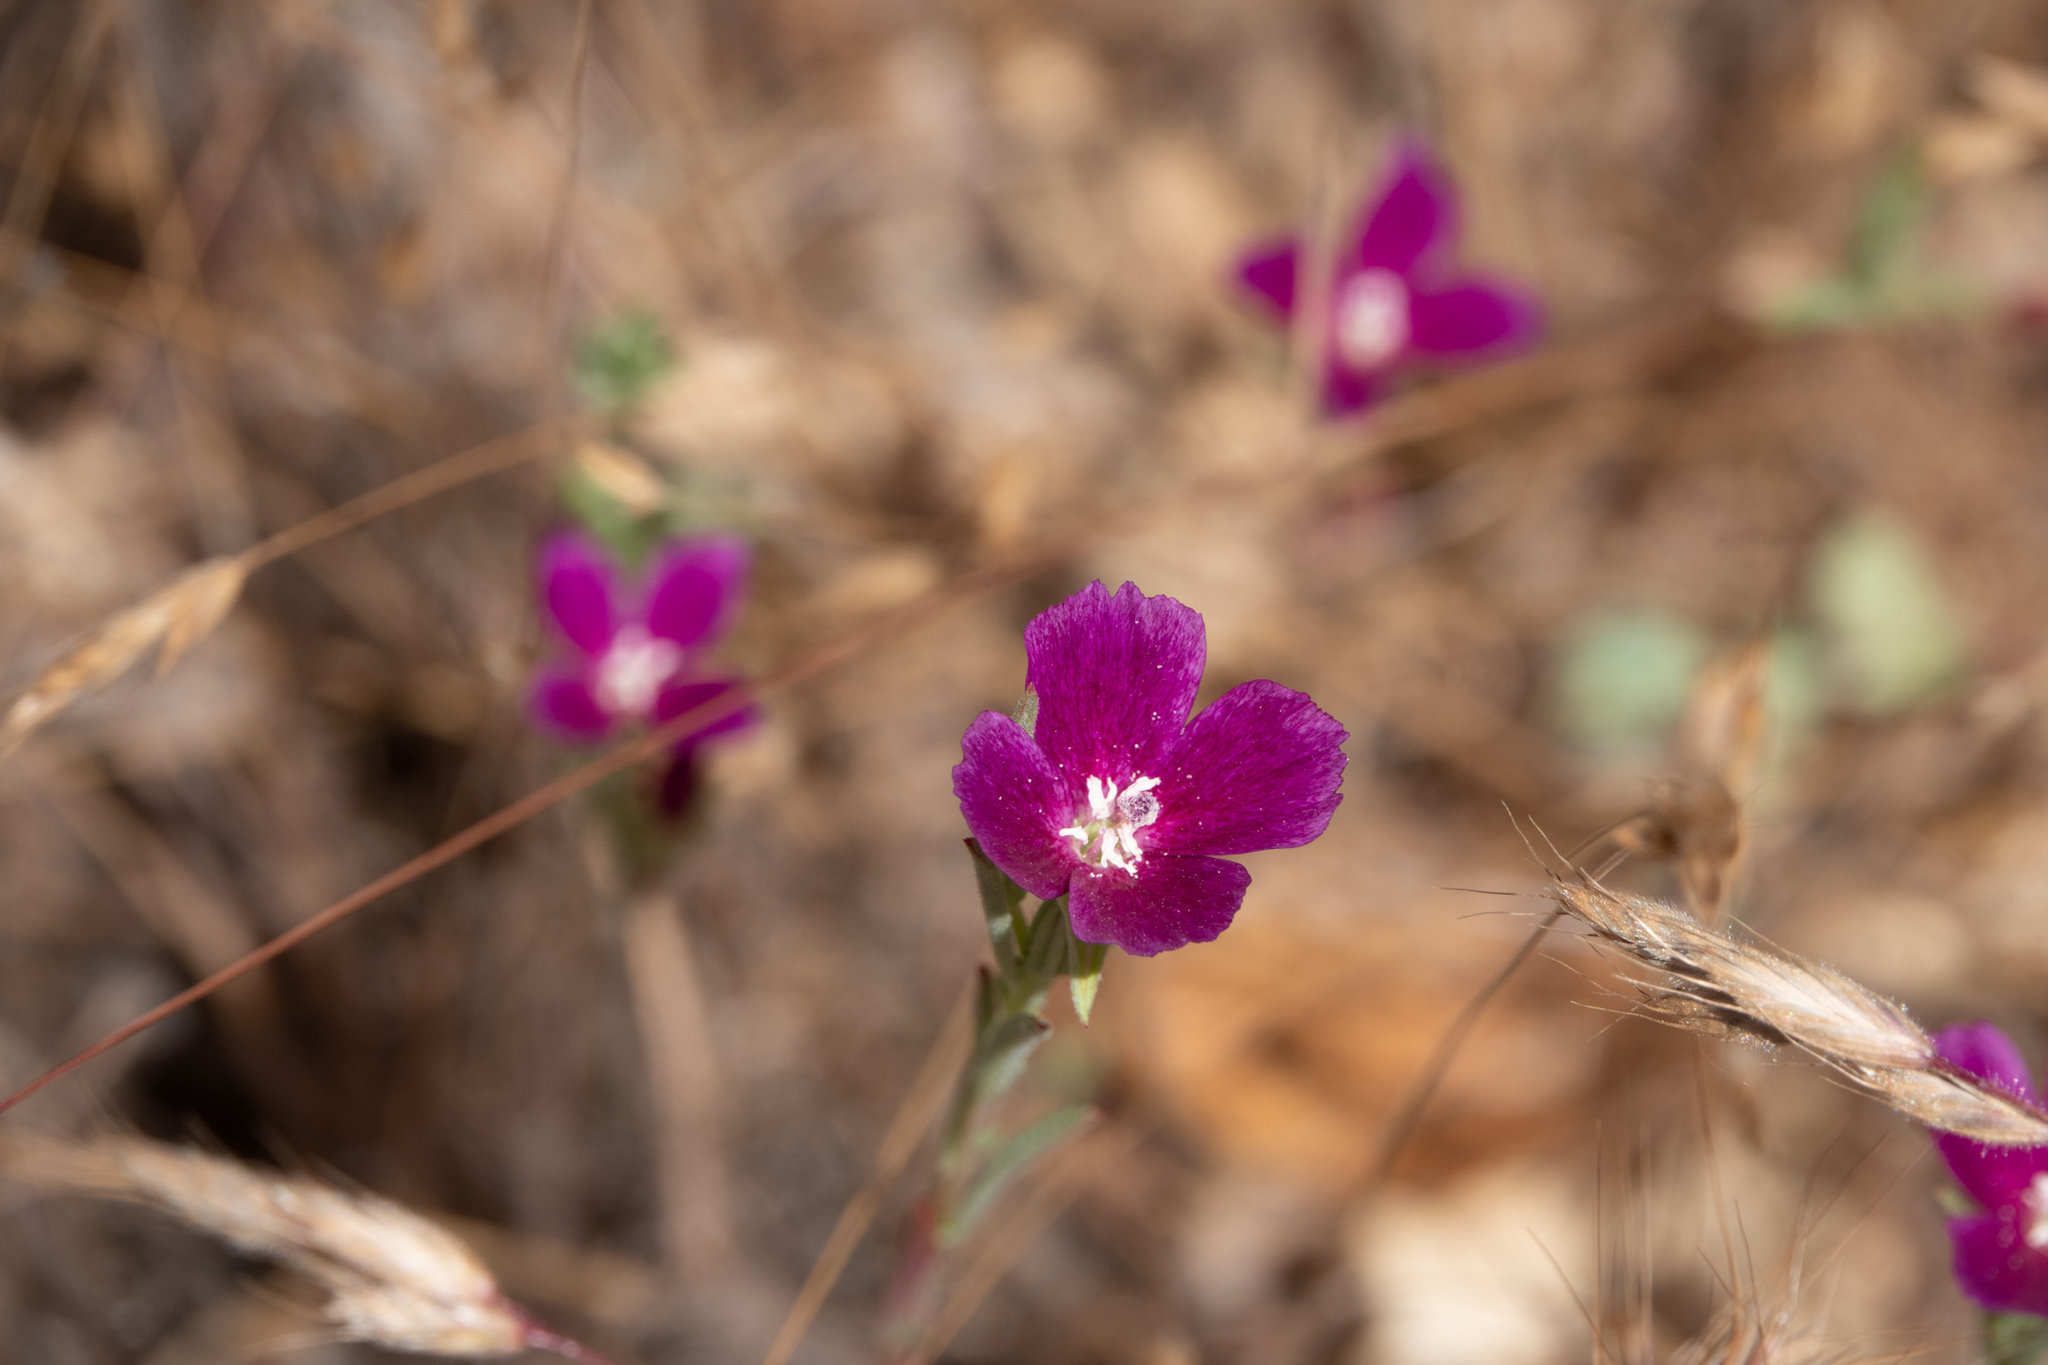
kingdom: Plantae
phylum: Tracheophyta
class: Magnoliopsida
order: Myrtales
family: Onagraceae
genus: Clarkia
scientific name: Clarkia purpurea
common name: Purple clarkia
